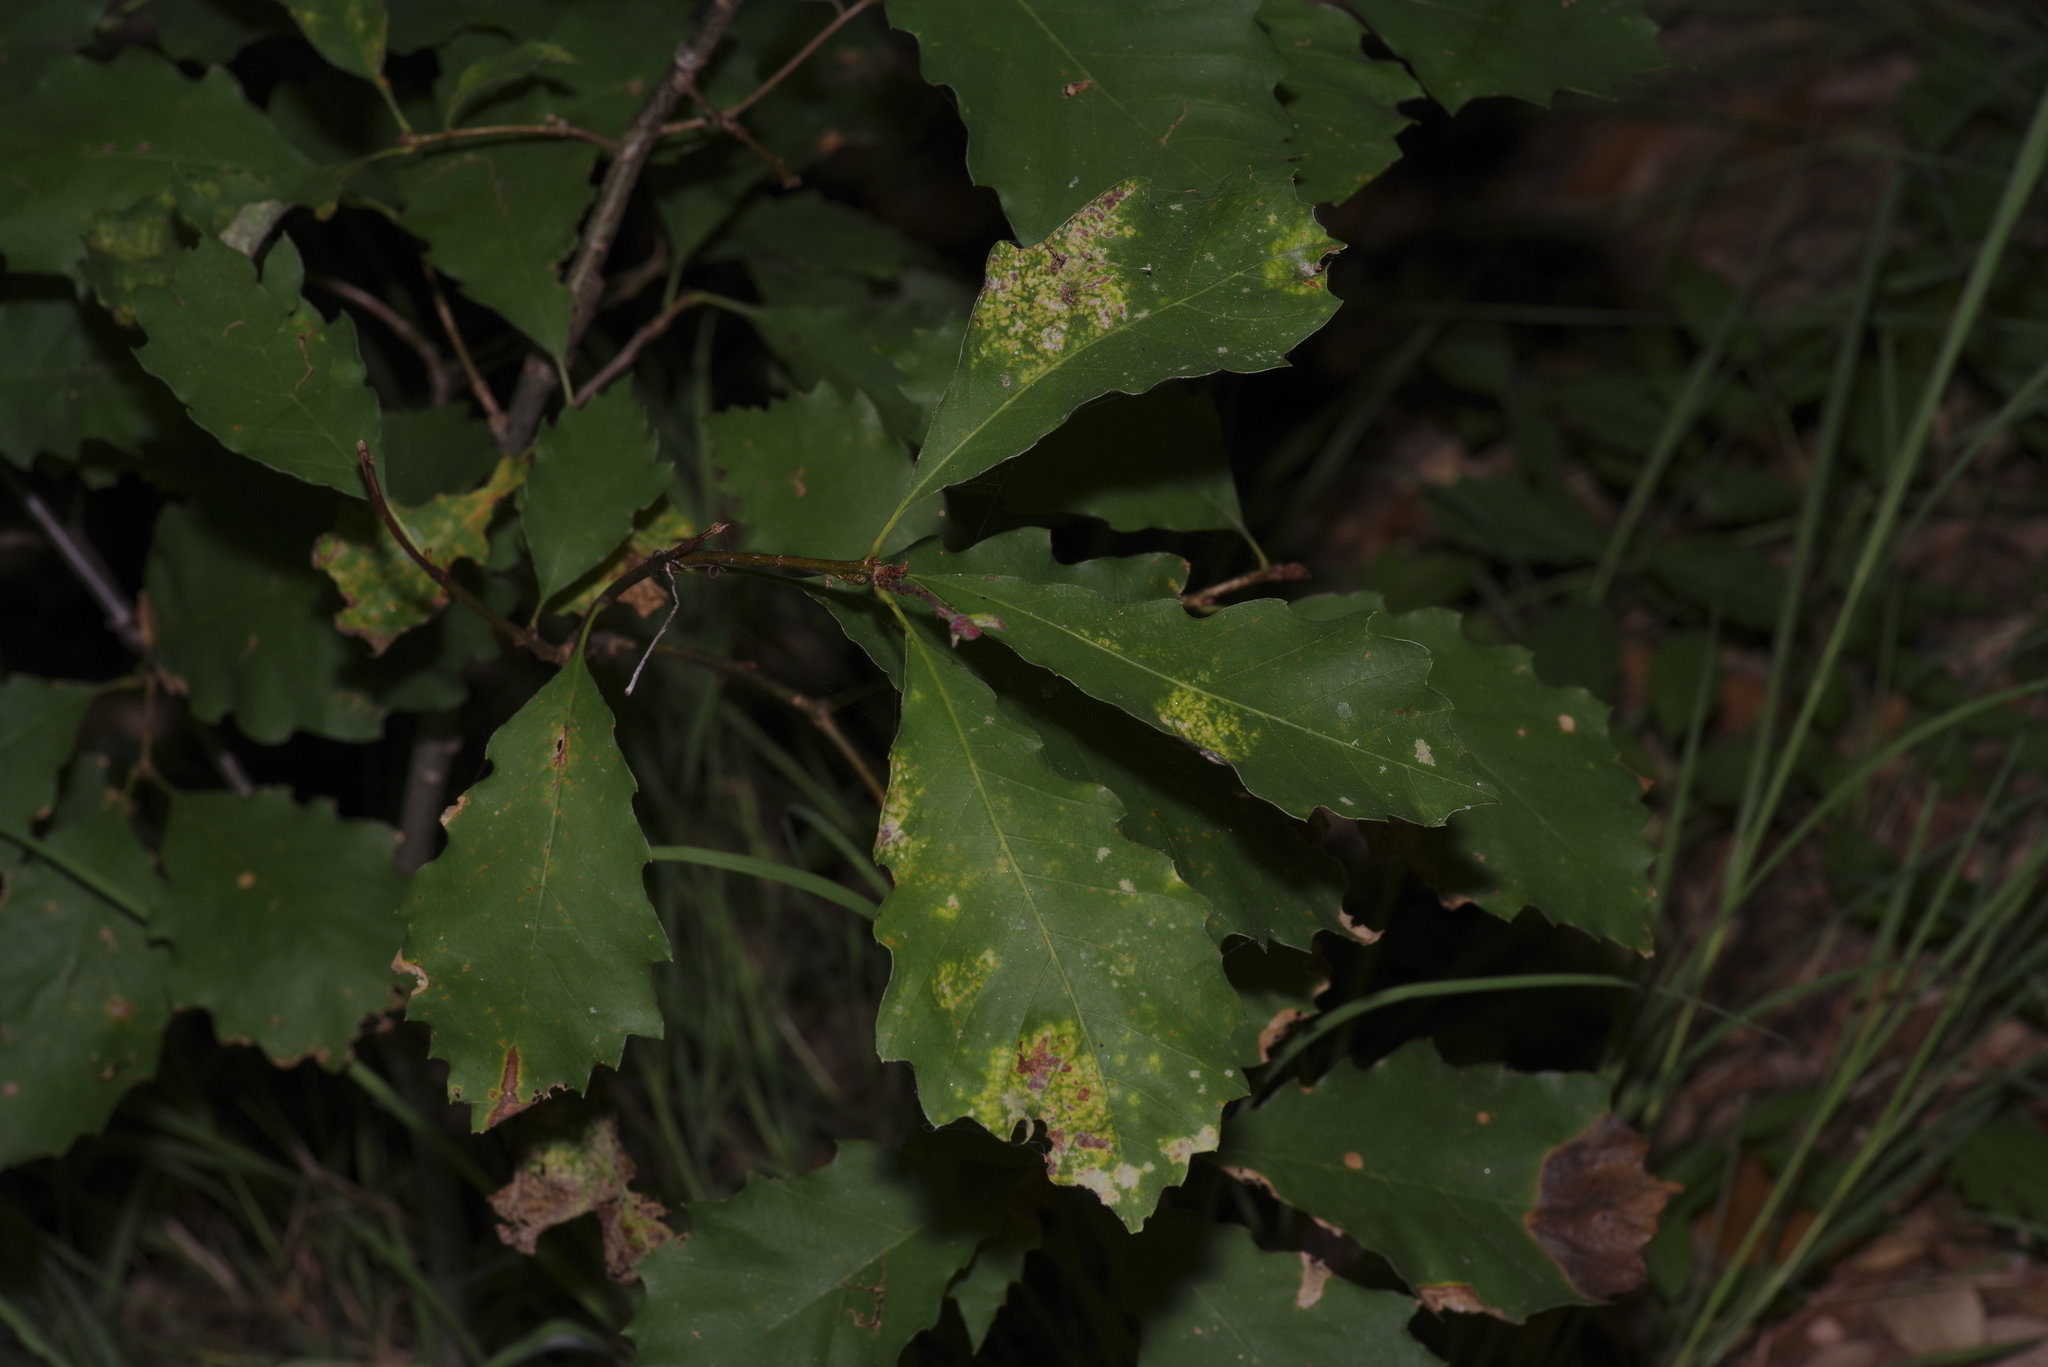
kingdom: Plantae
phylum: Tracheophyta
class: Magnoliopsida
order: Fagales
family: Fagaceae
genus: Quercus
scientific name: Quercus muehlenbergii
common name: Chinkapin oak
